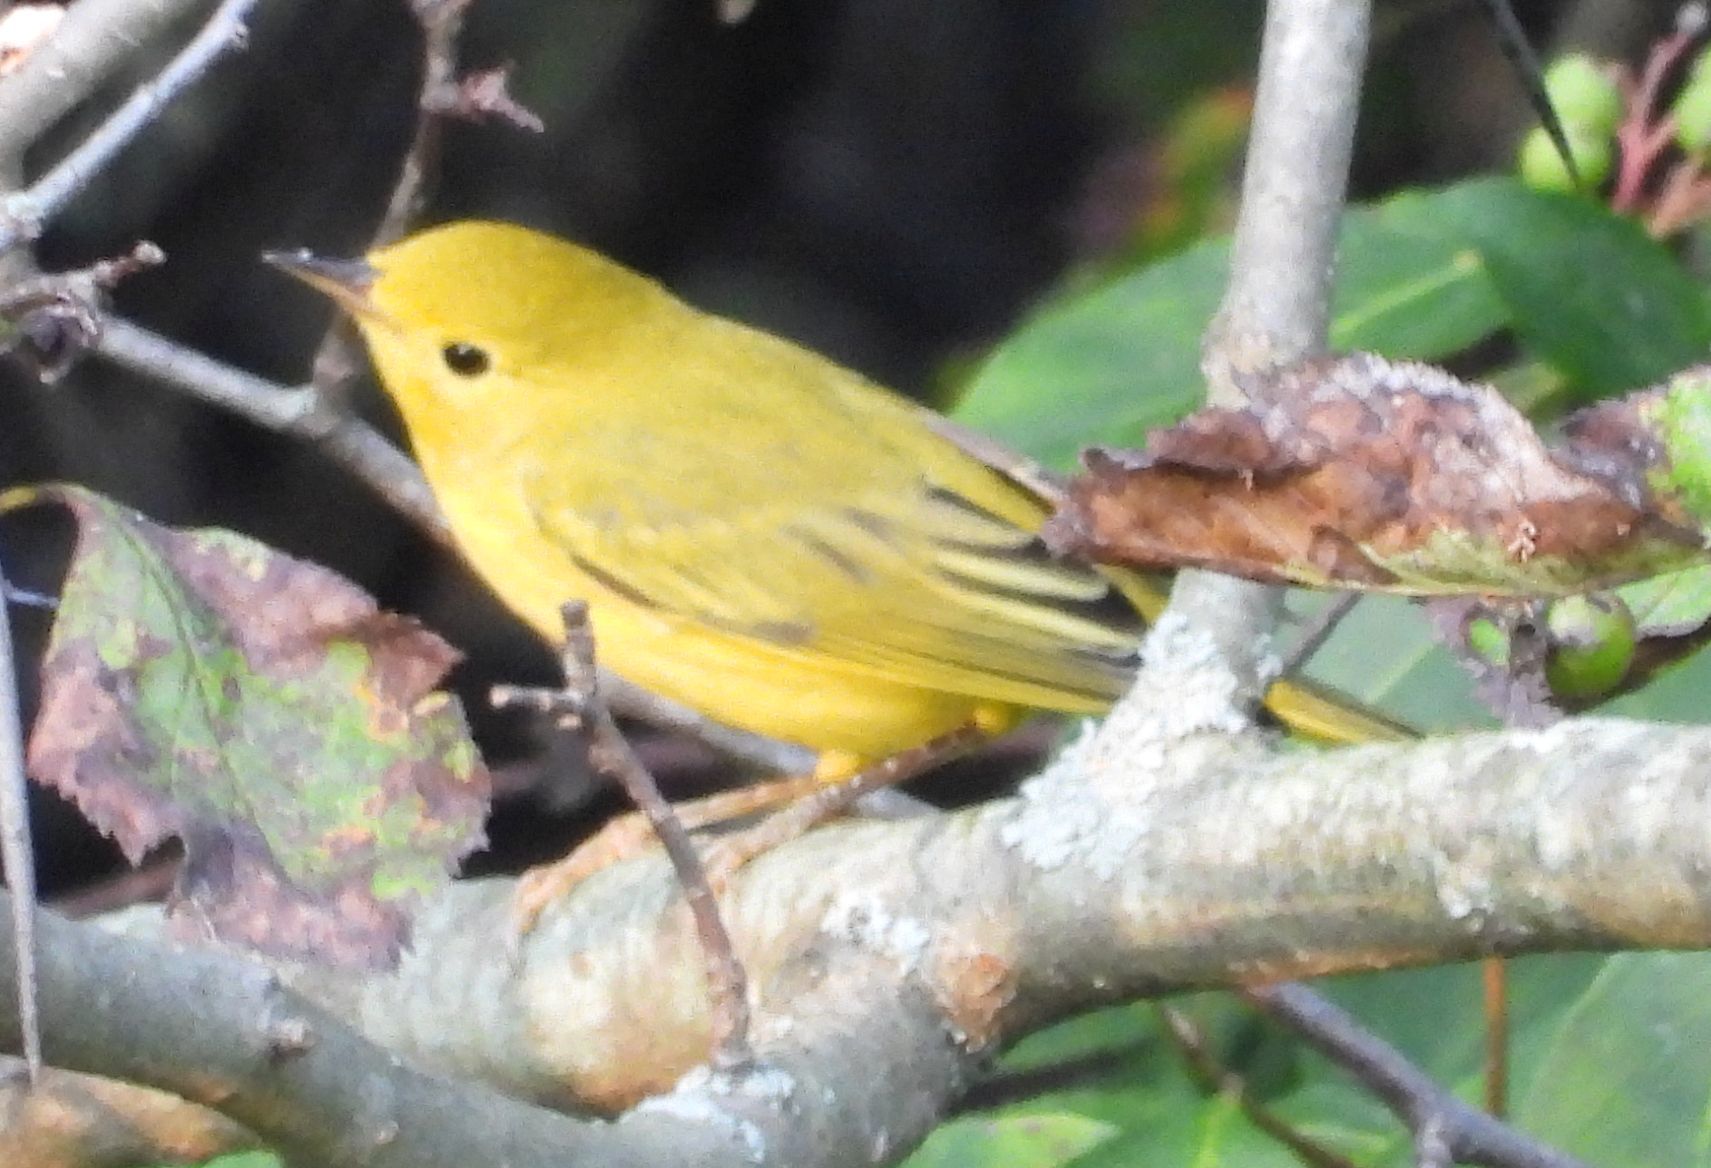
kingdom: Animalia
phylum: Chordata
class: Aves
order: Passeriformes
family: Parulidae
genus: Setophaga
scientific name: Setophaga petechia
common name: Yellow warbler
